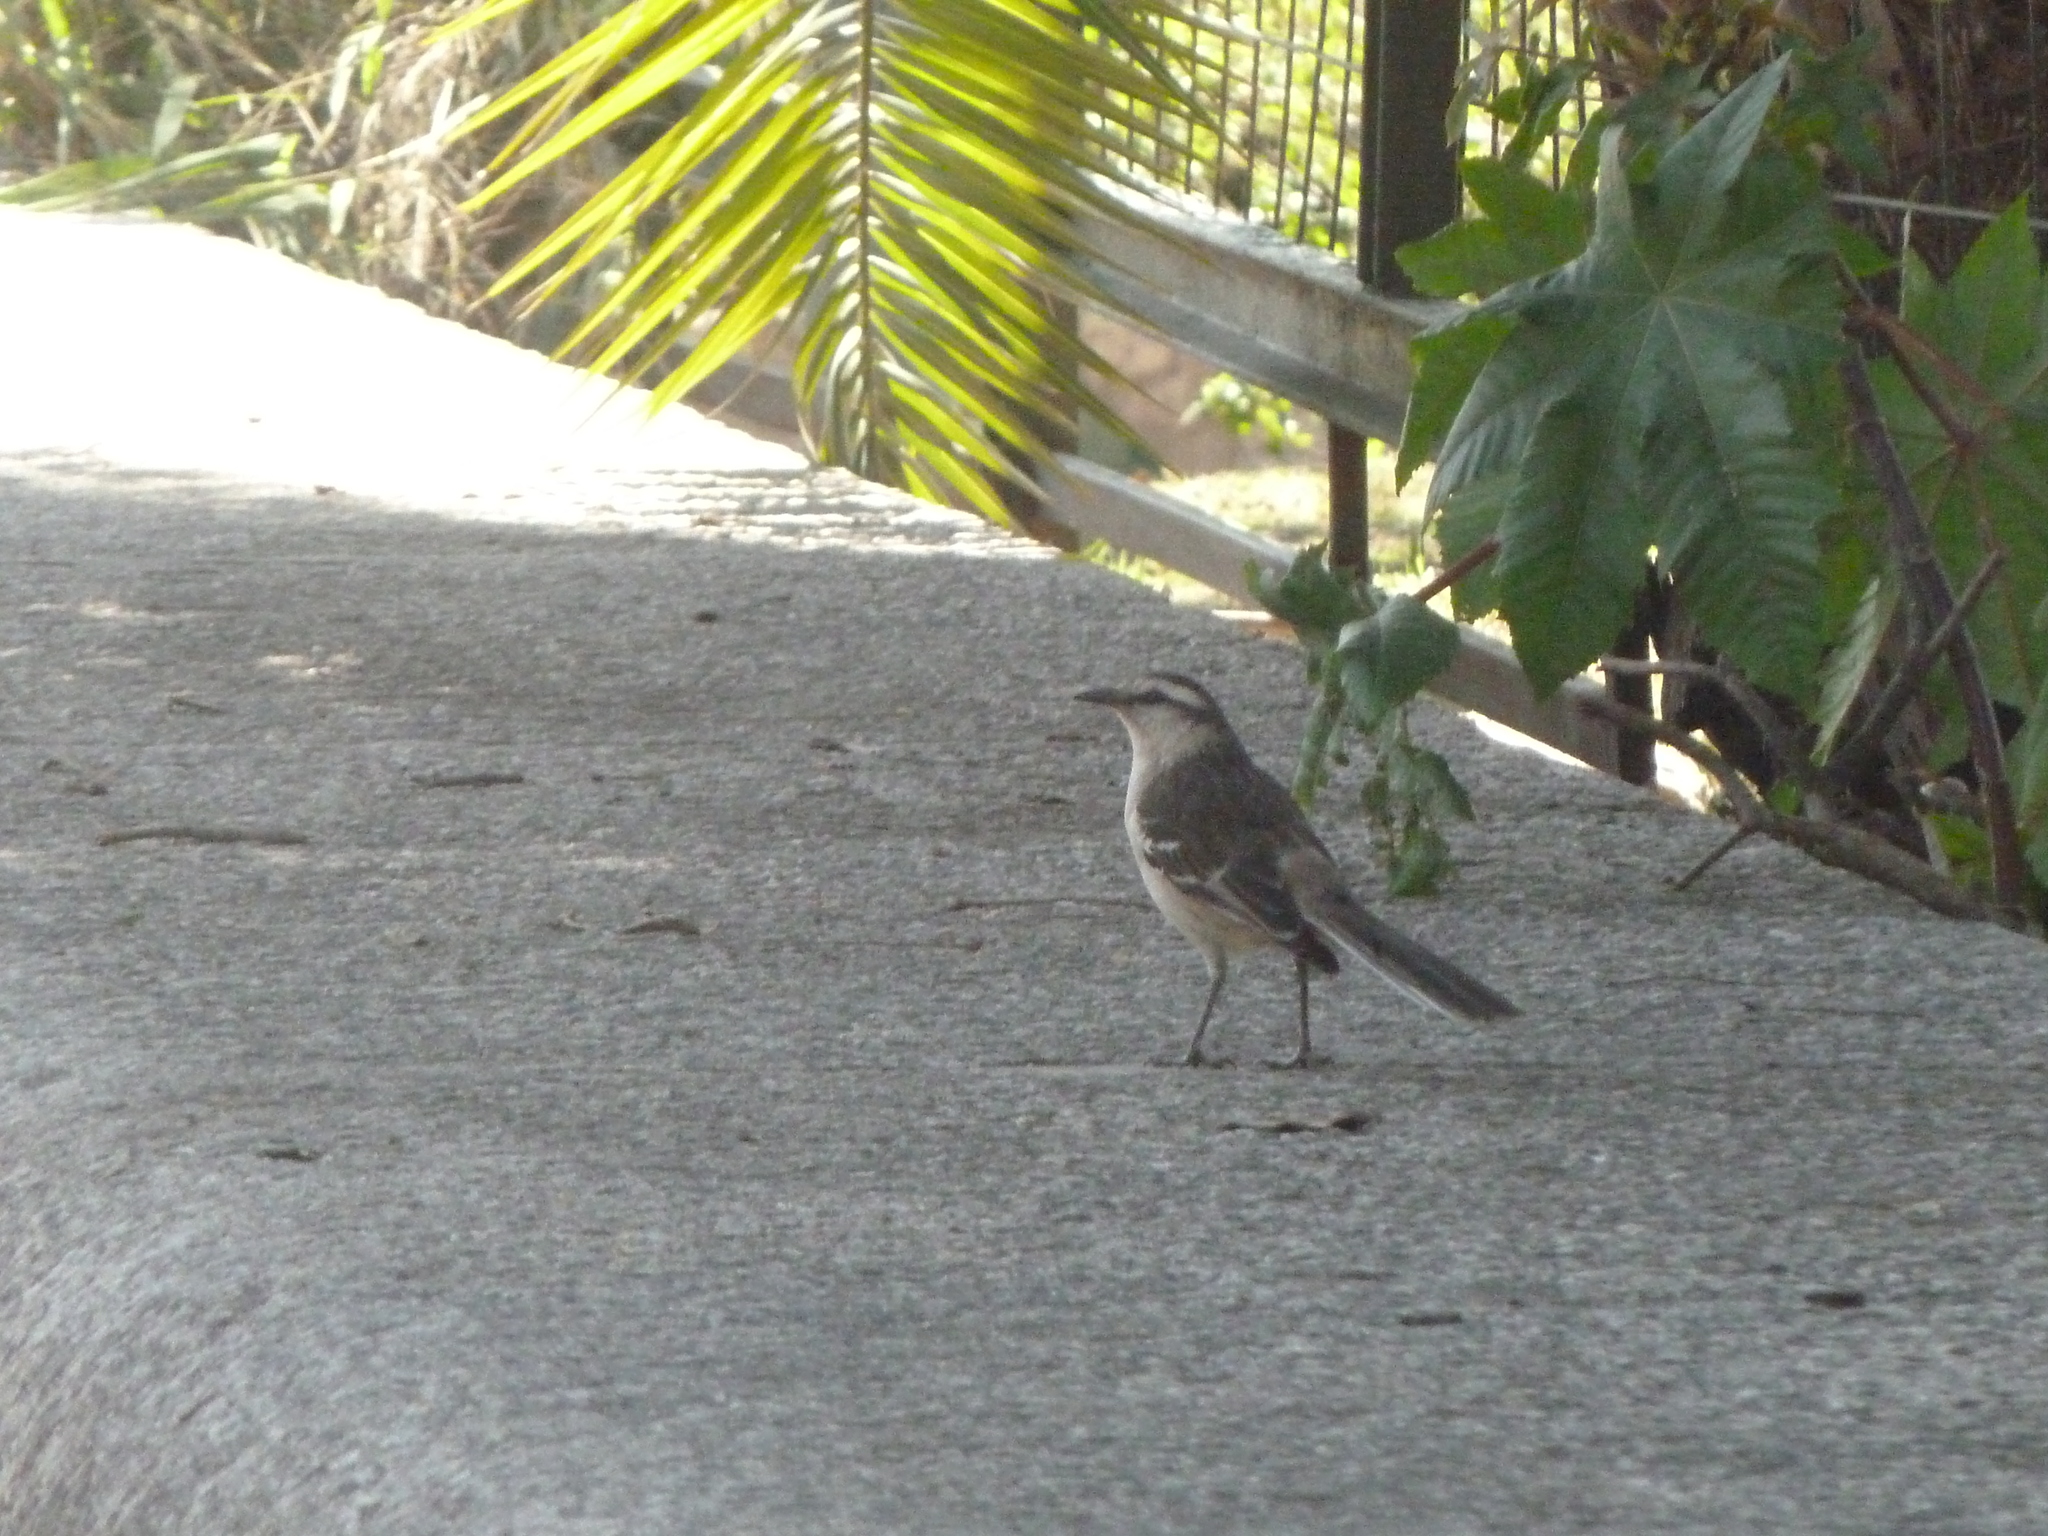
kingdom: Animalia
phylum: Chordata
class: Aves
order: Passeriformes
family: Mimidae
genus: Mimus
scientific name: Mimus saturninus
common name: Chalk-browed mockingbird
